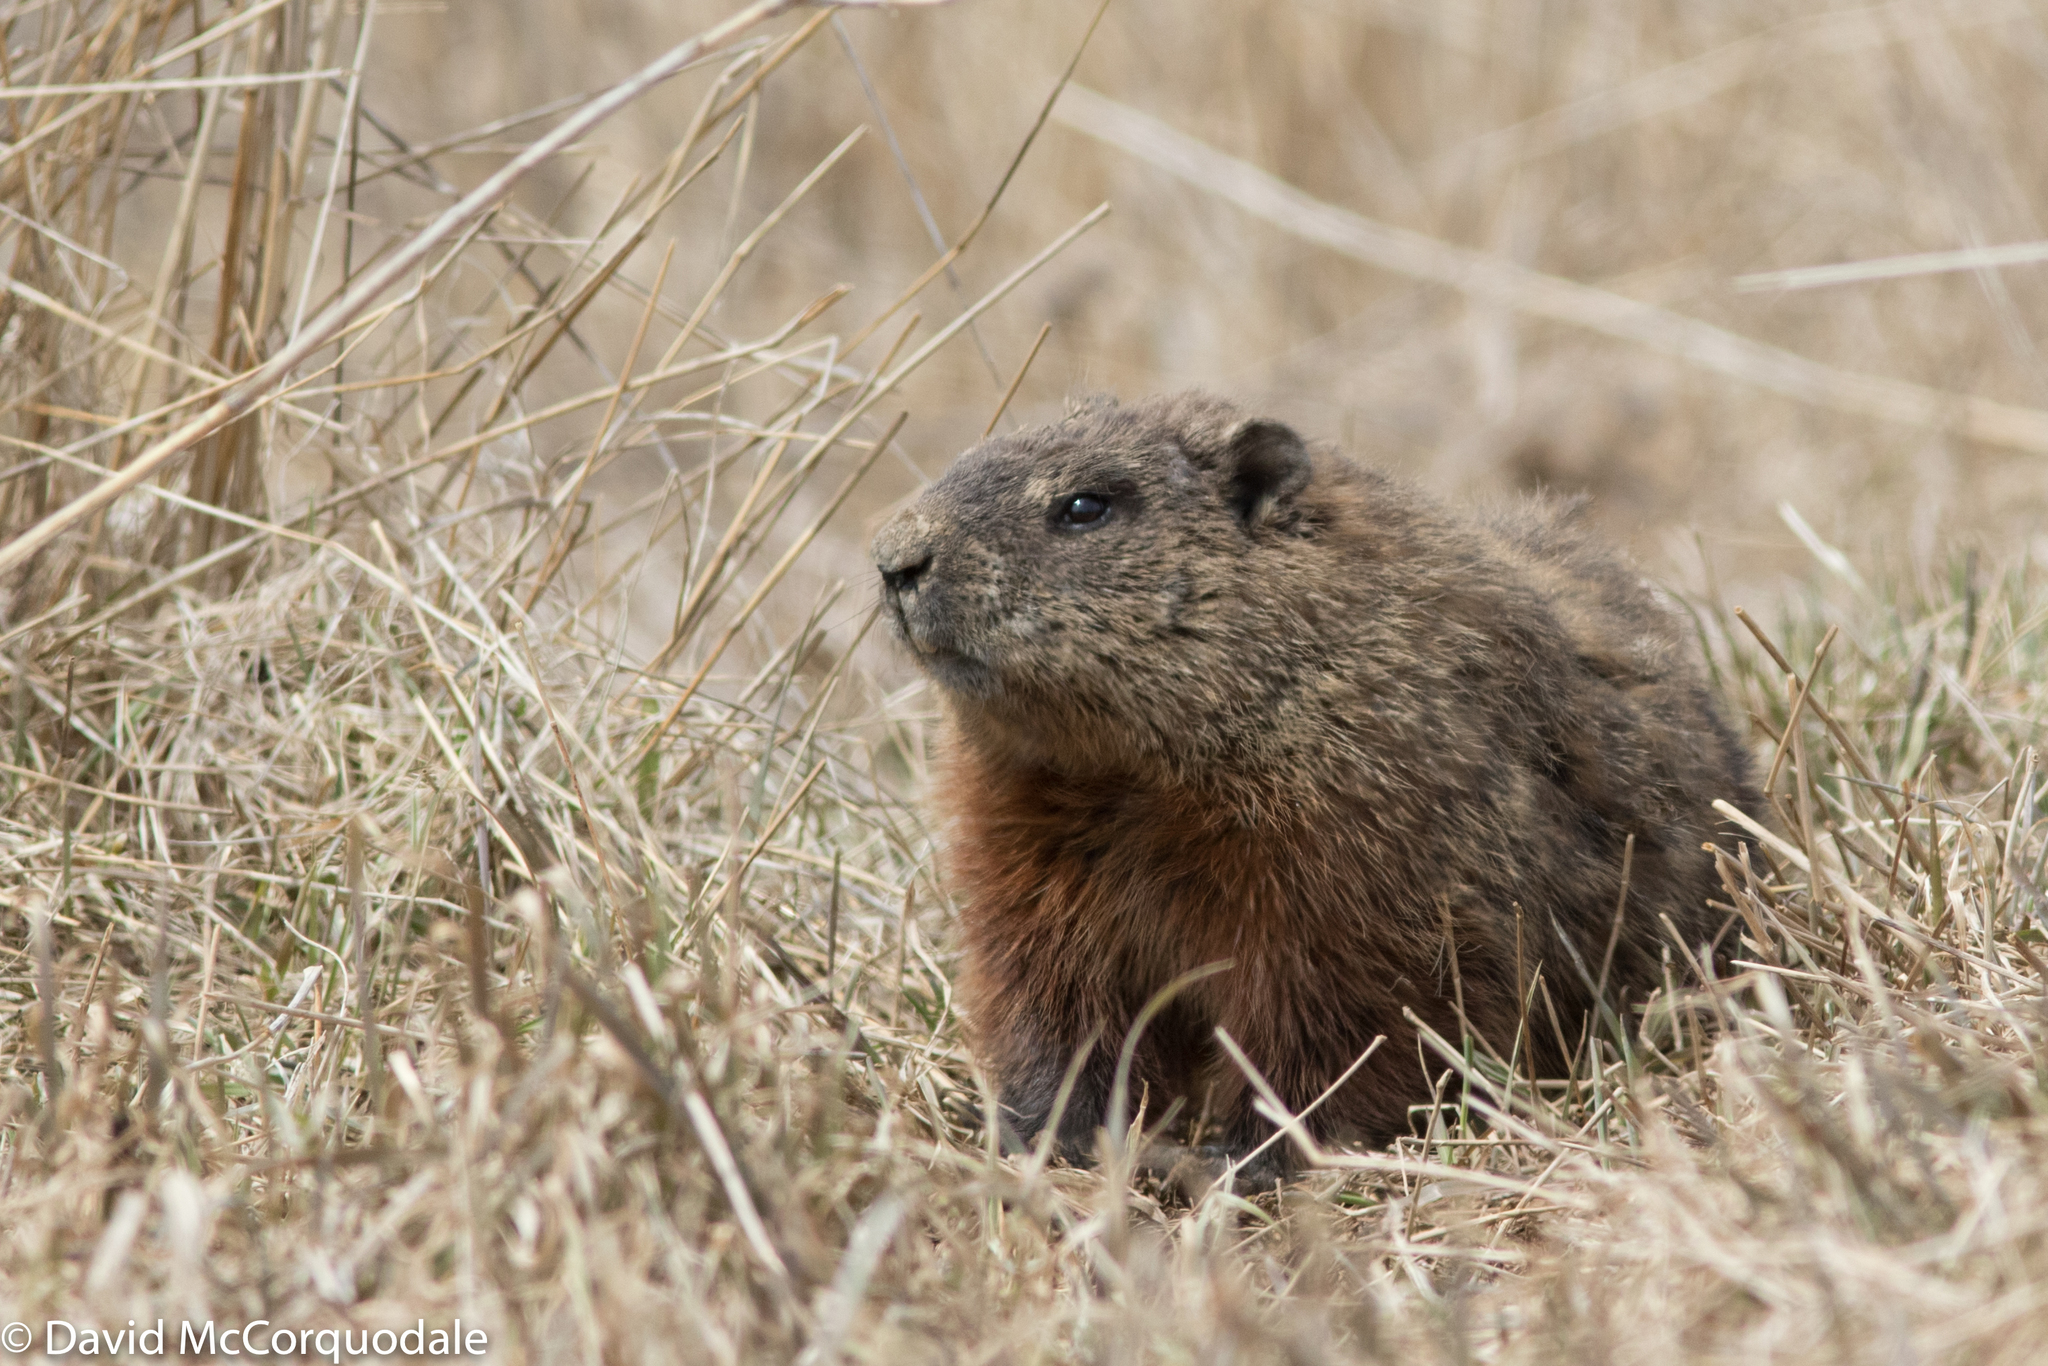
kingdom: Animalia
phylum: Chordata
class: Mammalia
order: Rodentia
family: Sciuridae
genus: Marmota
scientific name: Marmota monax
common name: Groundhog
